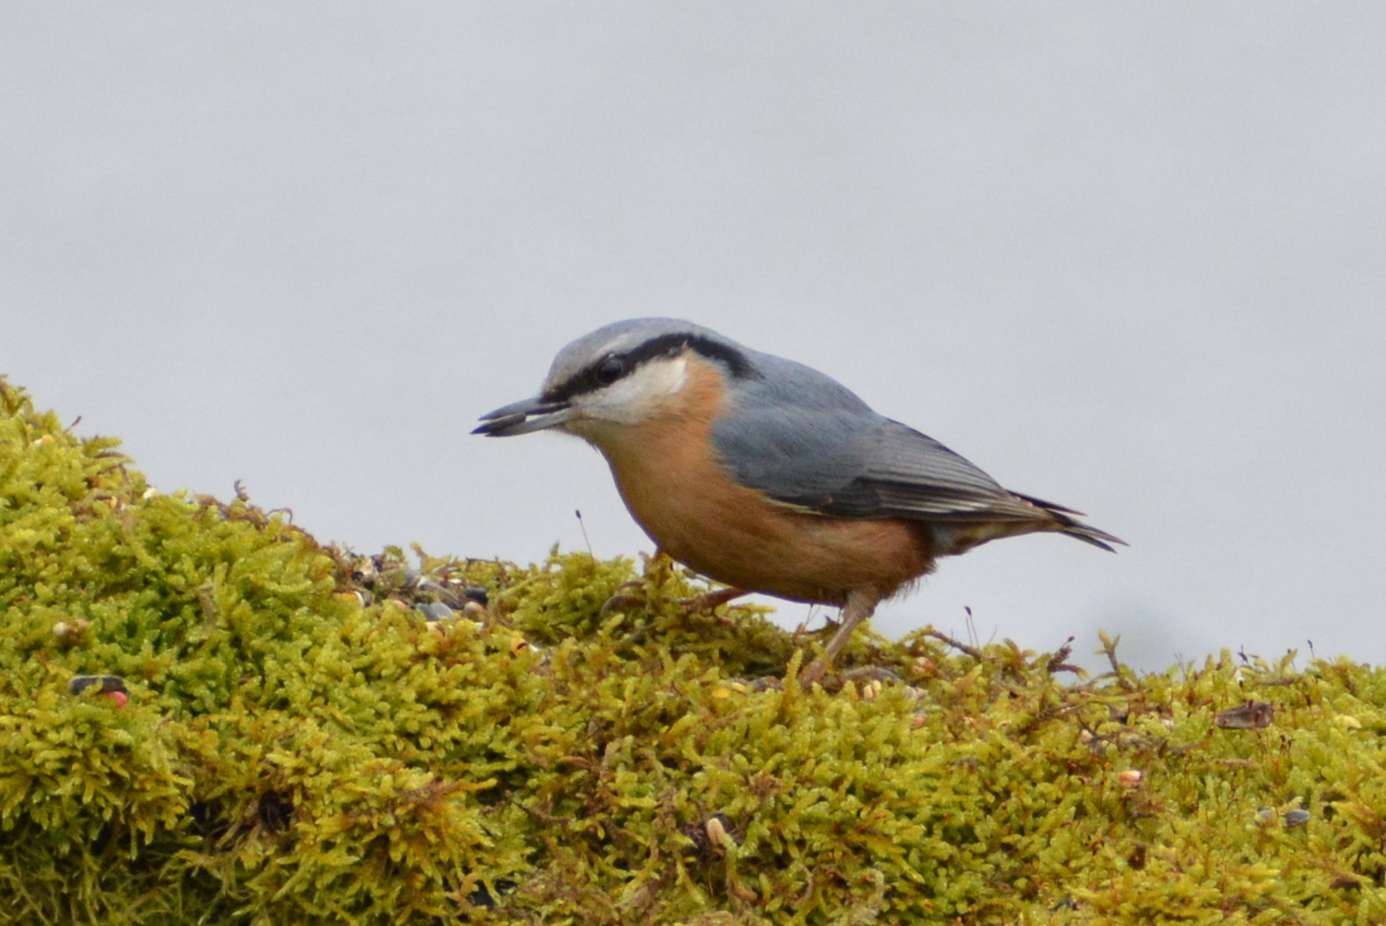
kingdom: Animalia
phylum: Chordata
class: Aves
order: Passeriformes
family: Sittidae
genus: Sitta
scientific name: Sitta europaea
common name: Eurasian nuthatch
